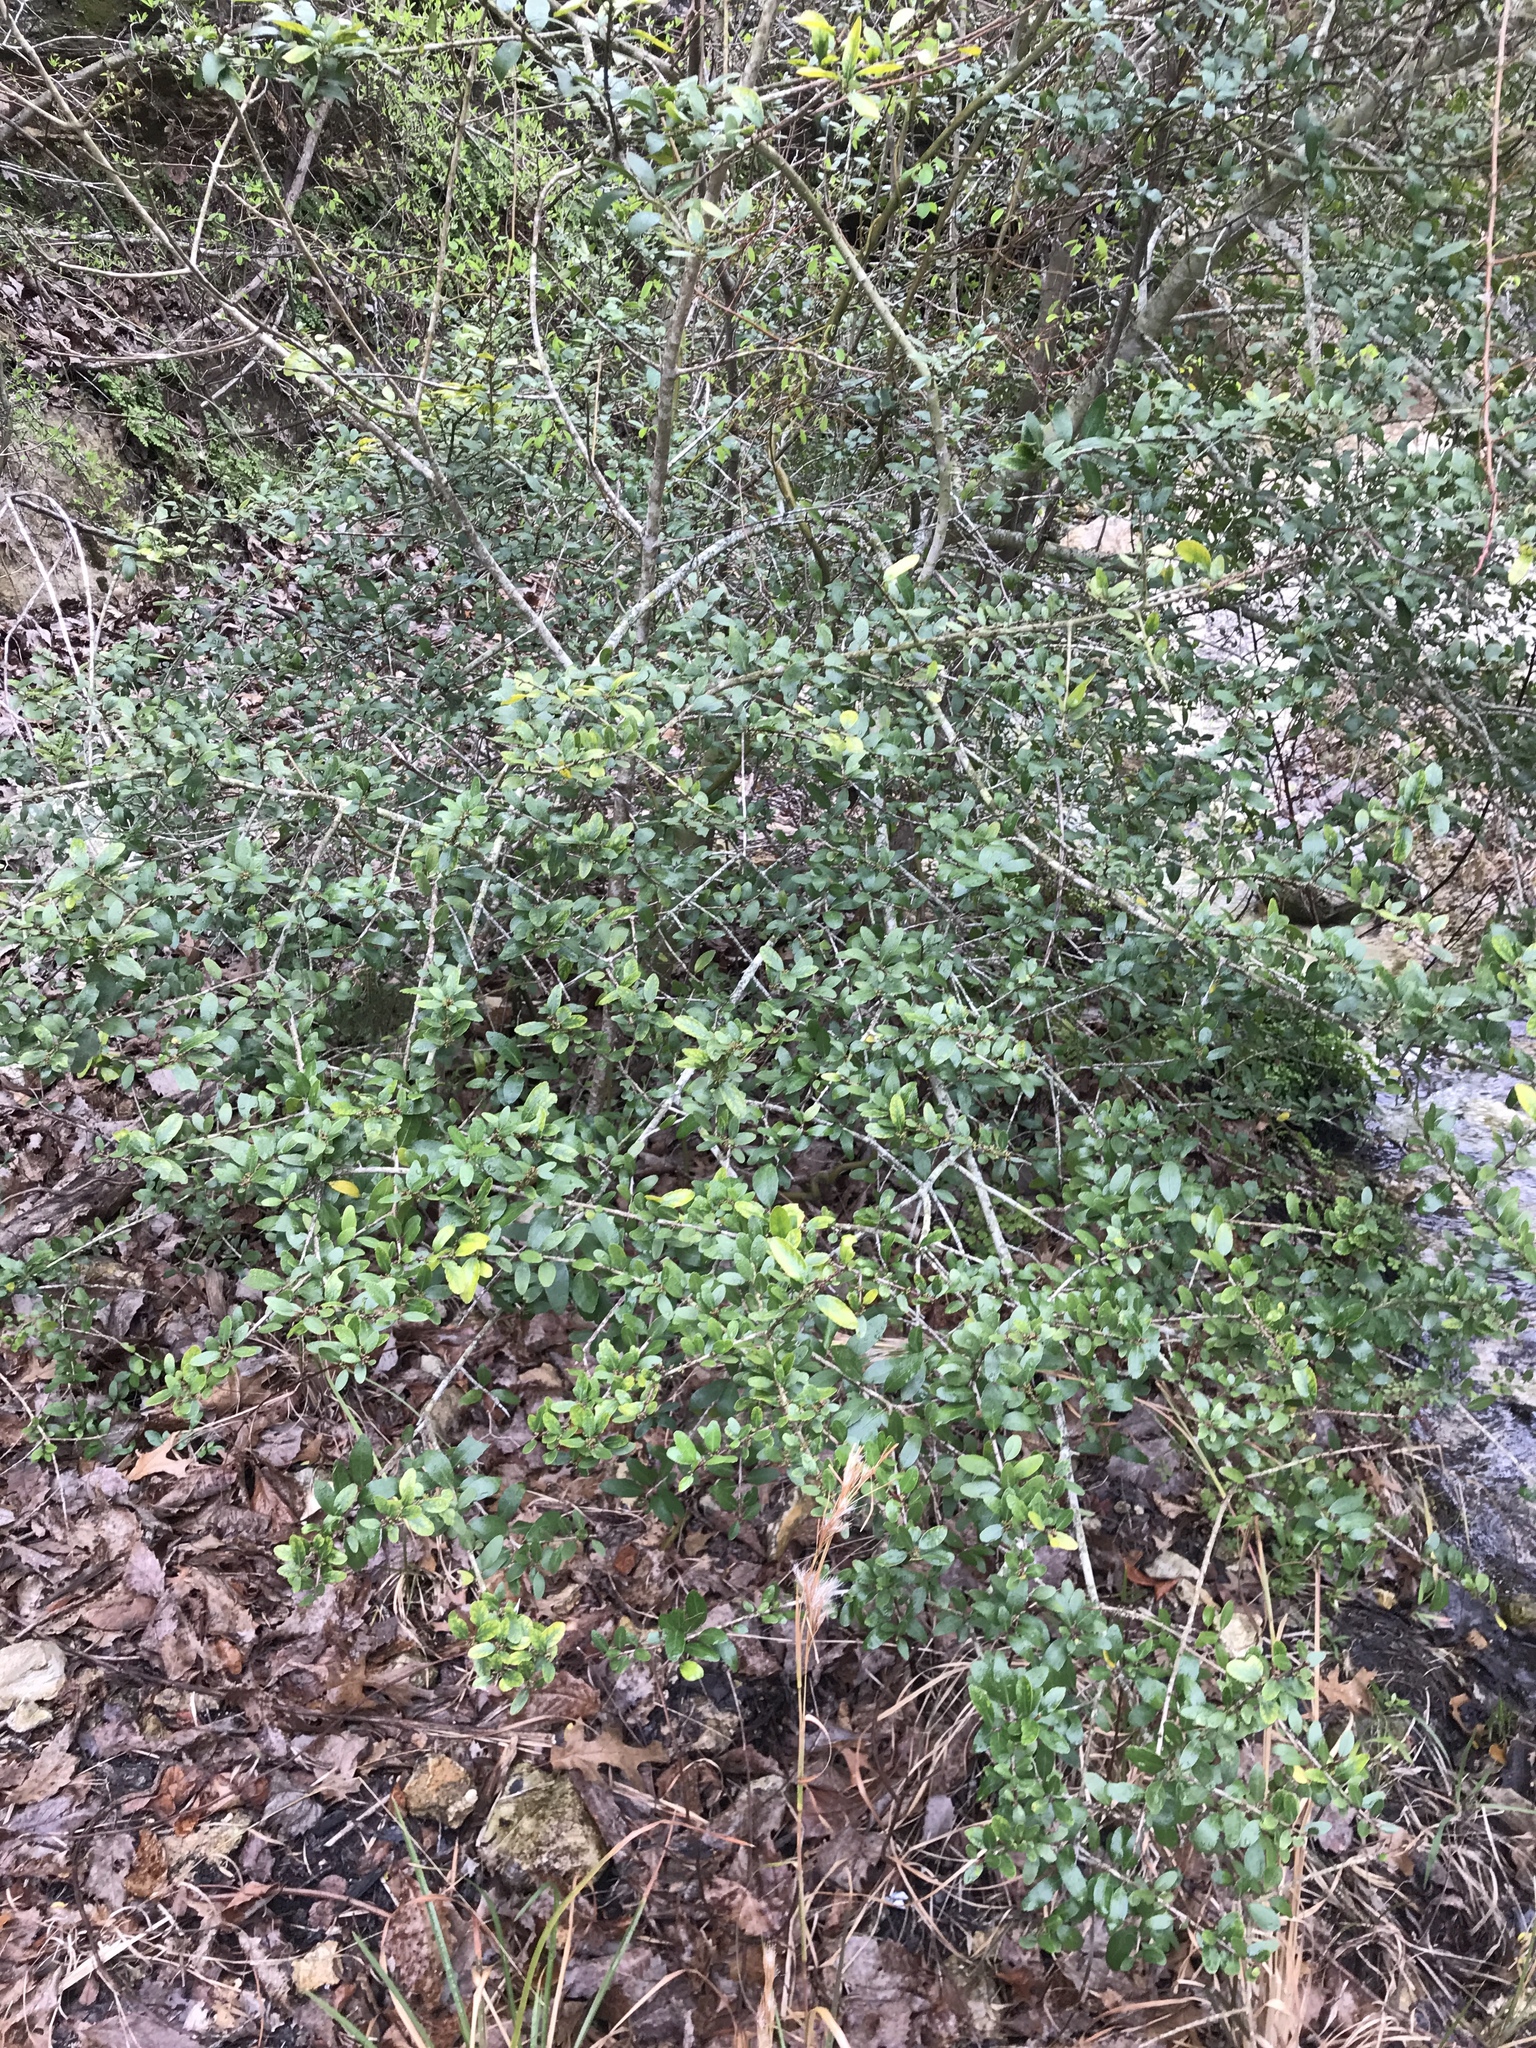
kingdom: Plantae
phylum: Tracheophyta
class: Magnoliopsida
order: Aquifoliales
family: Aquifoliaceae
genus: Ilex
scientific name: Ilex vomitoria
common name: Yaupon holly
